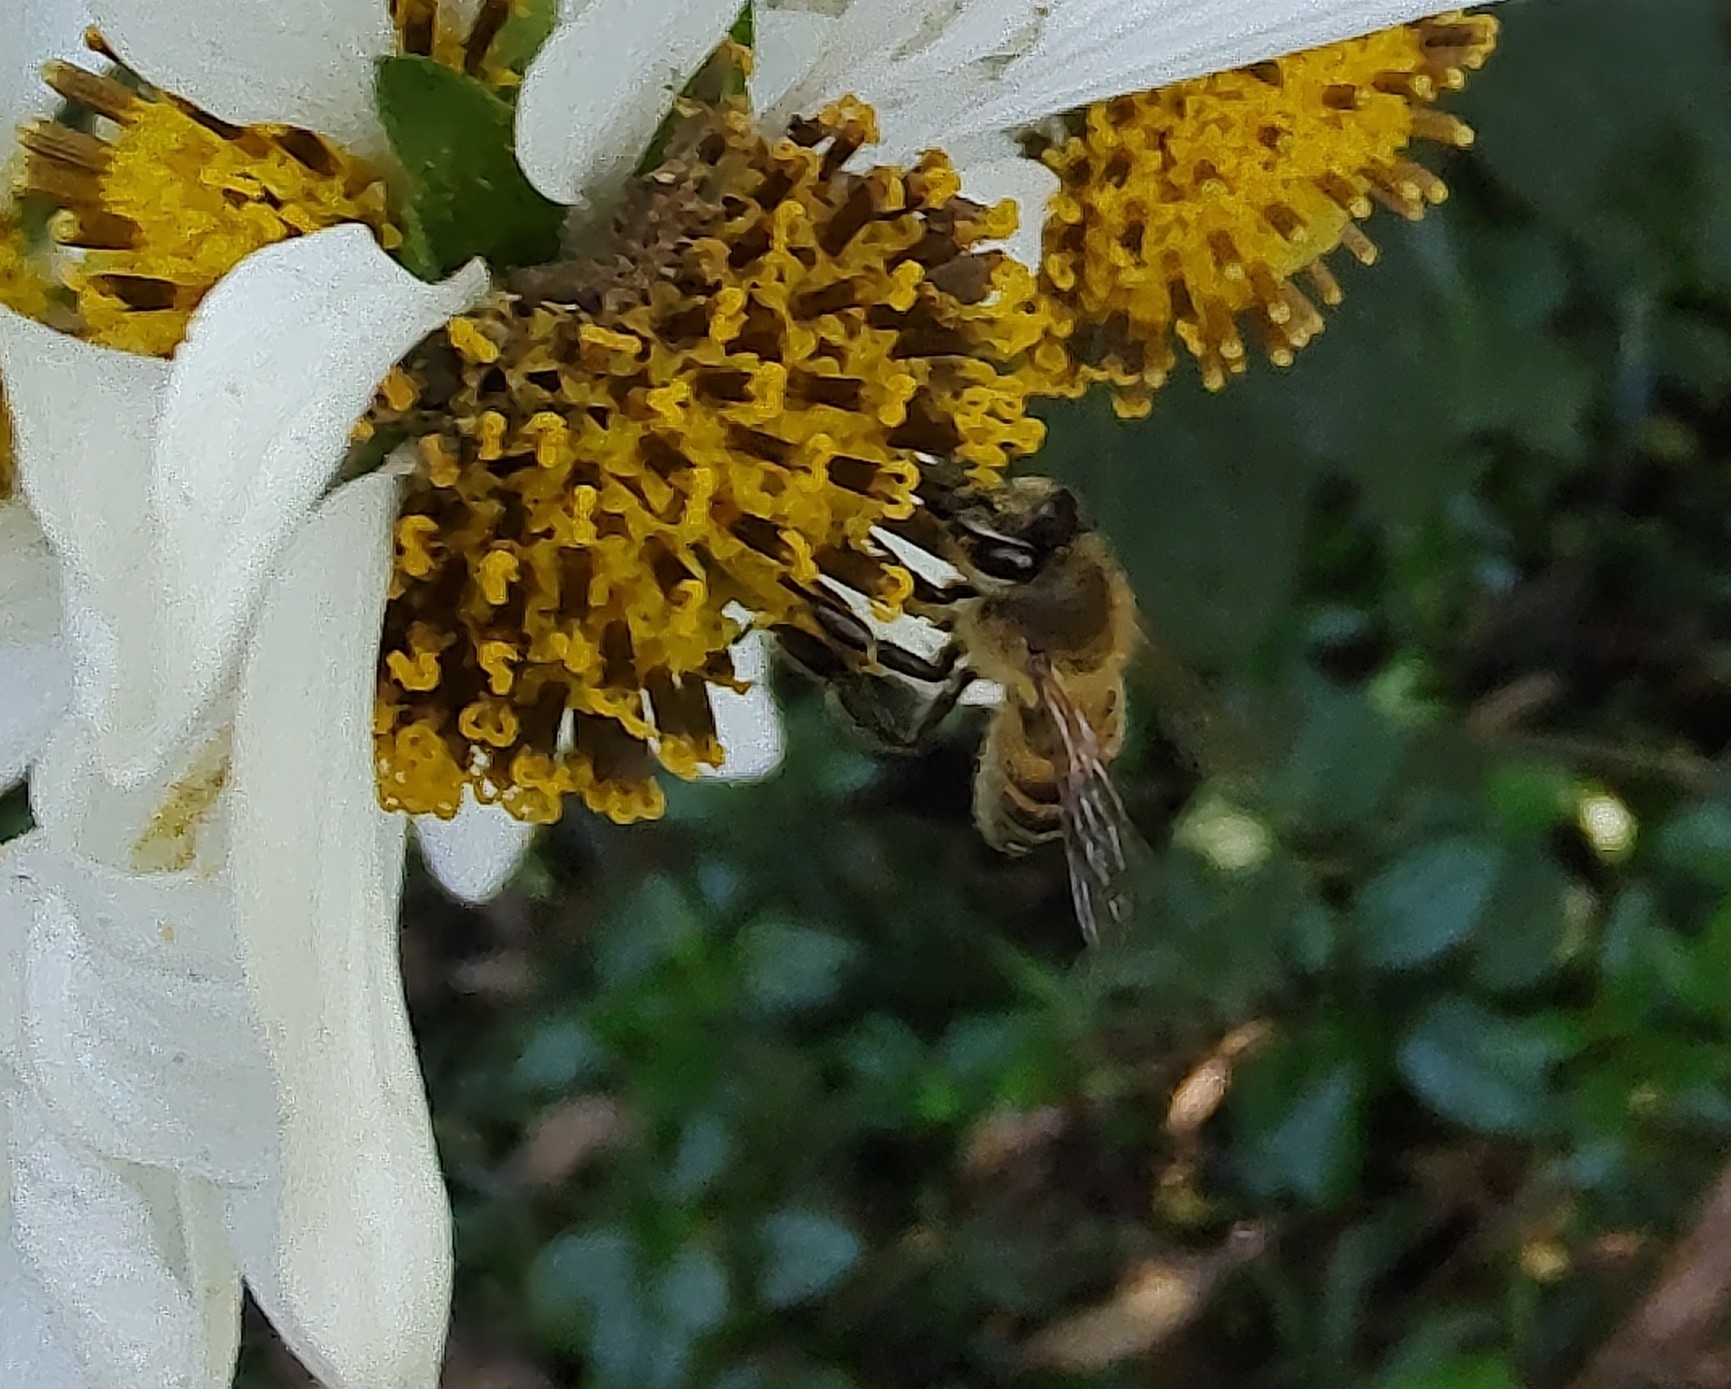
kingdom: Animalia
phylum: Arthropoda
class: Insecta
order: Hymenoptera
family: Apidae
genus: Apis
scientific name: Apis mellifera
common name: Honey bee
